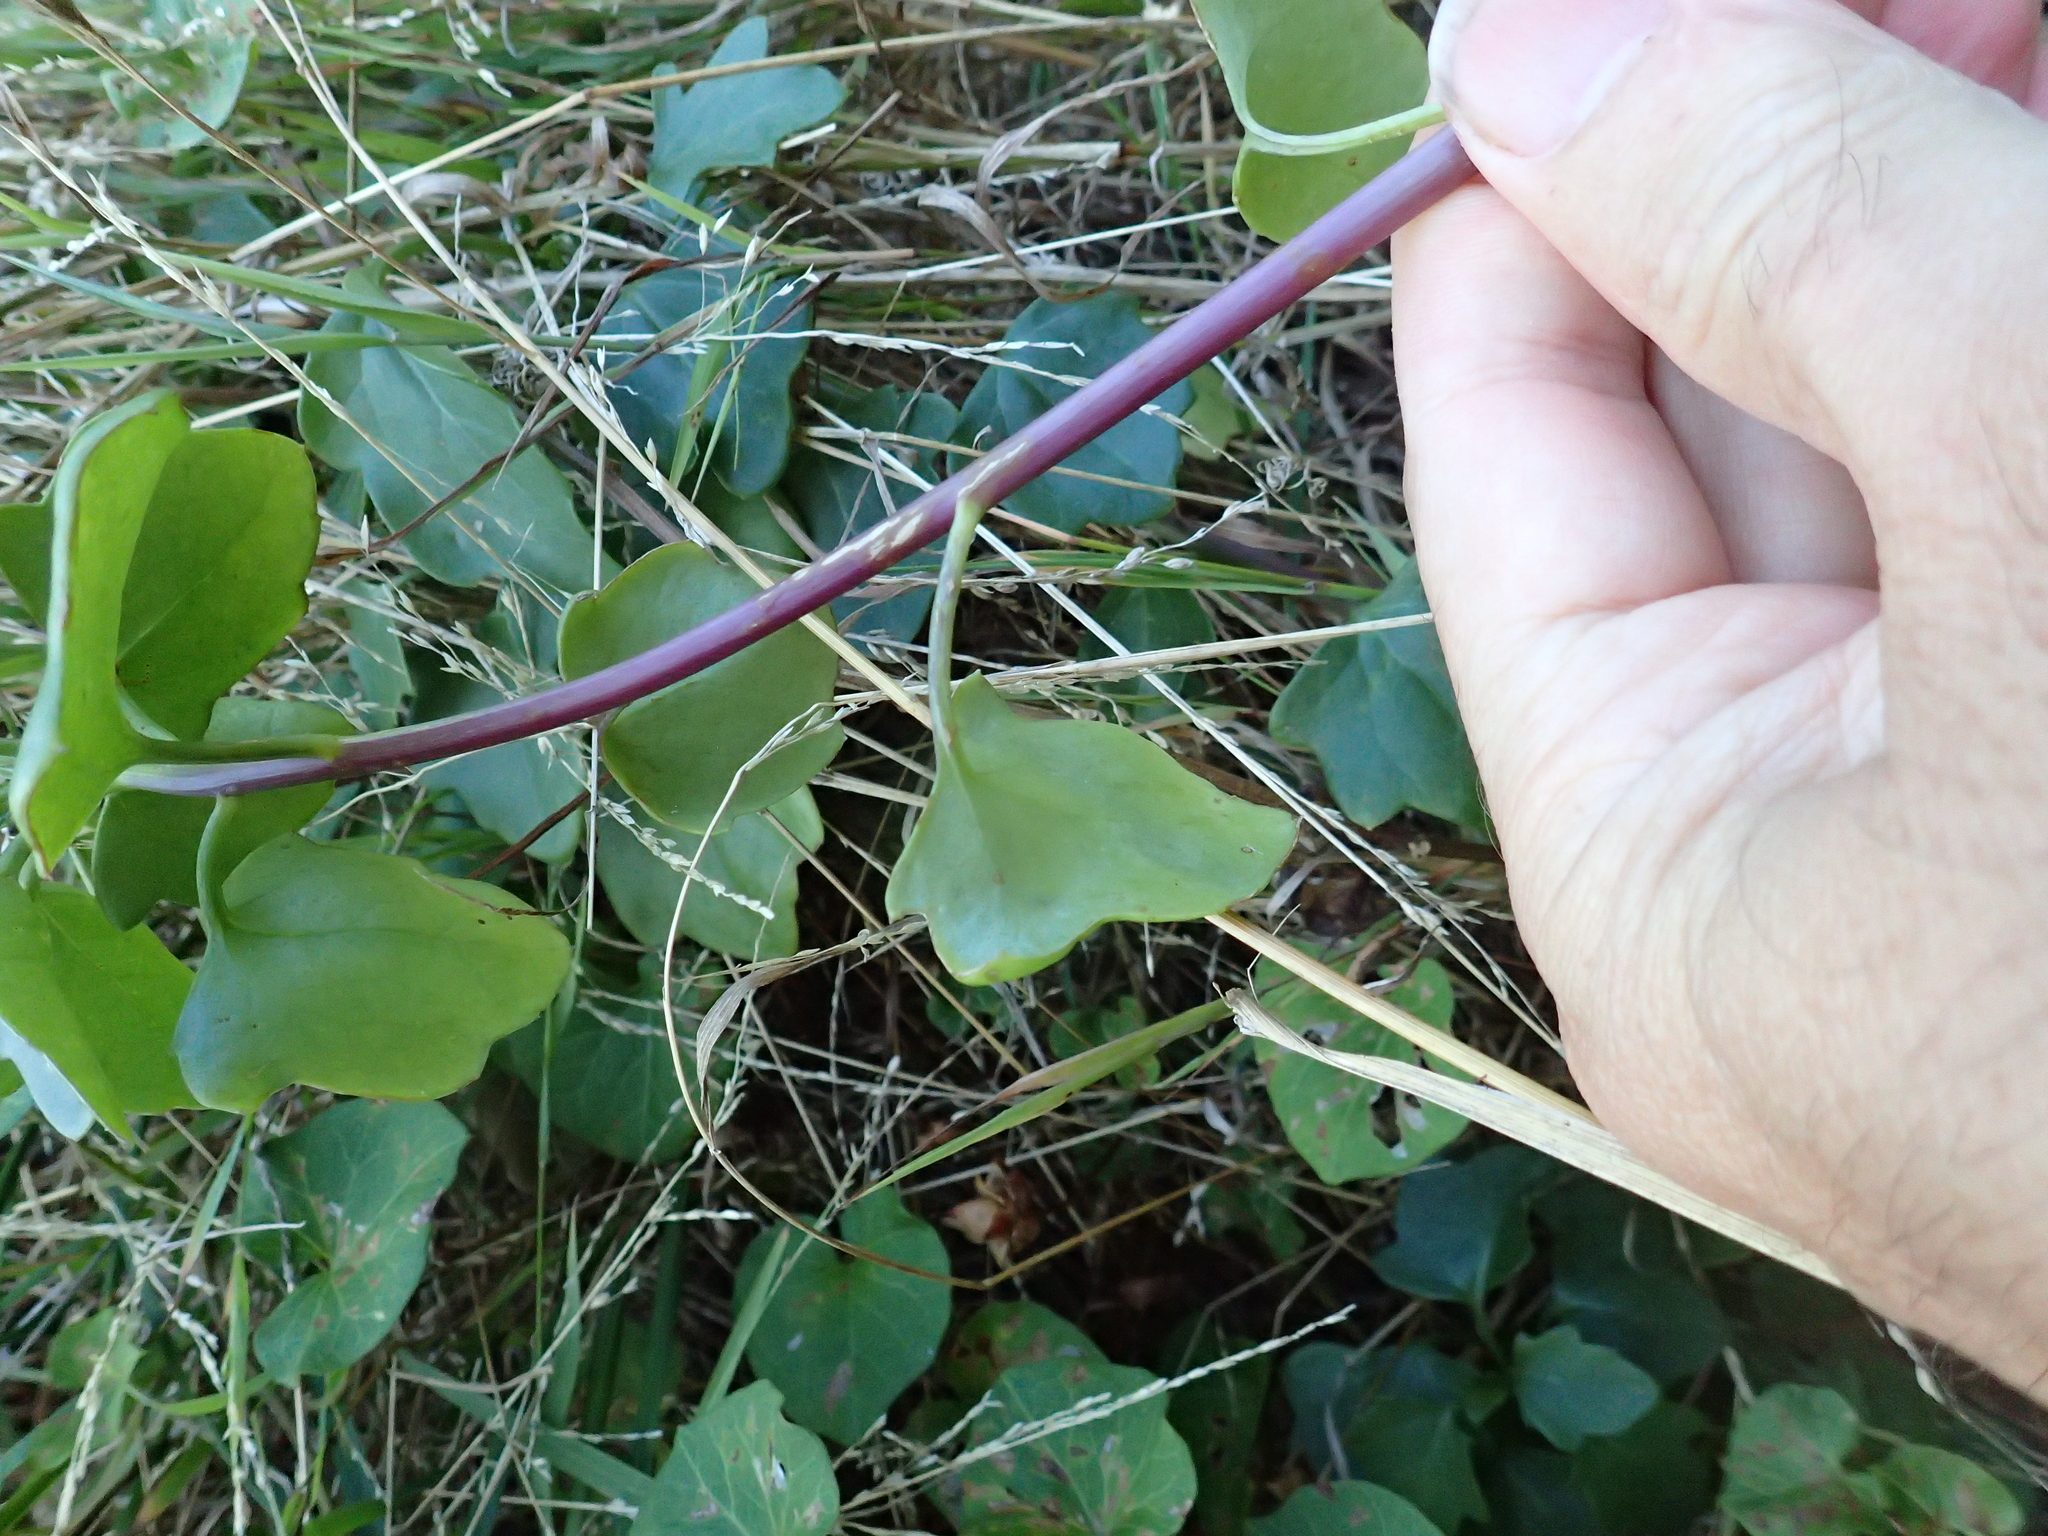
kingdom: Plantae
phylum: Tracheophyta
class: Magnoliopsida
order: Asterales
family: Asteraceae
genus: Senecio
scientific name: Senecio angulatus
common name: Climbing groundsel
